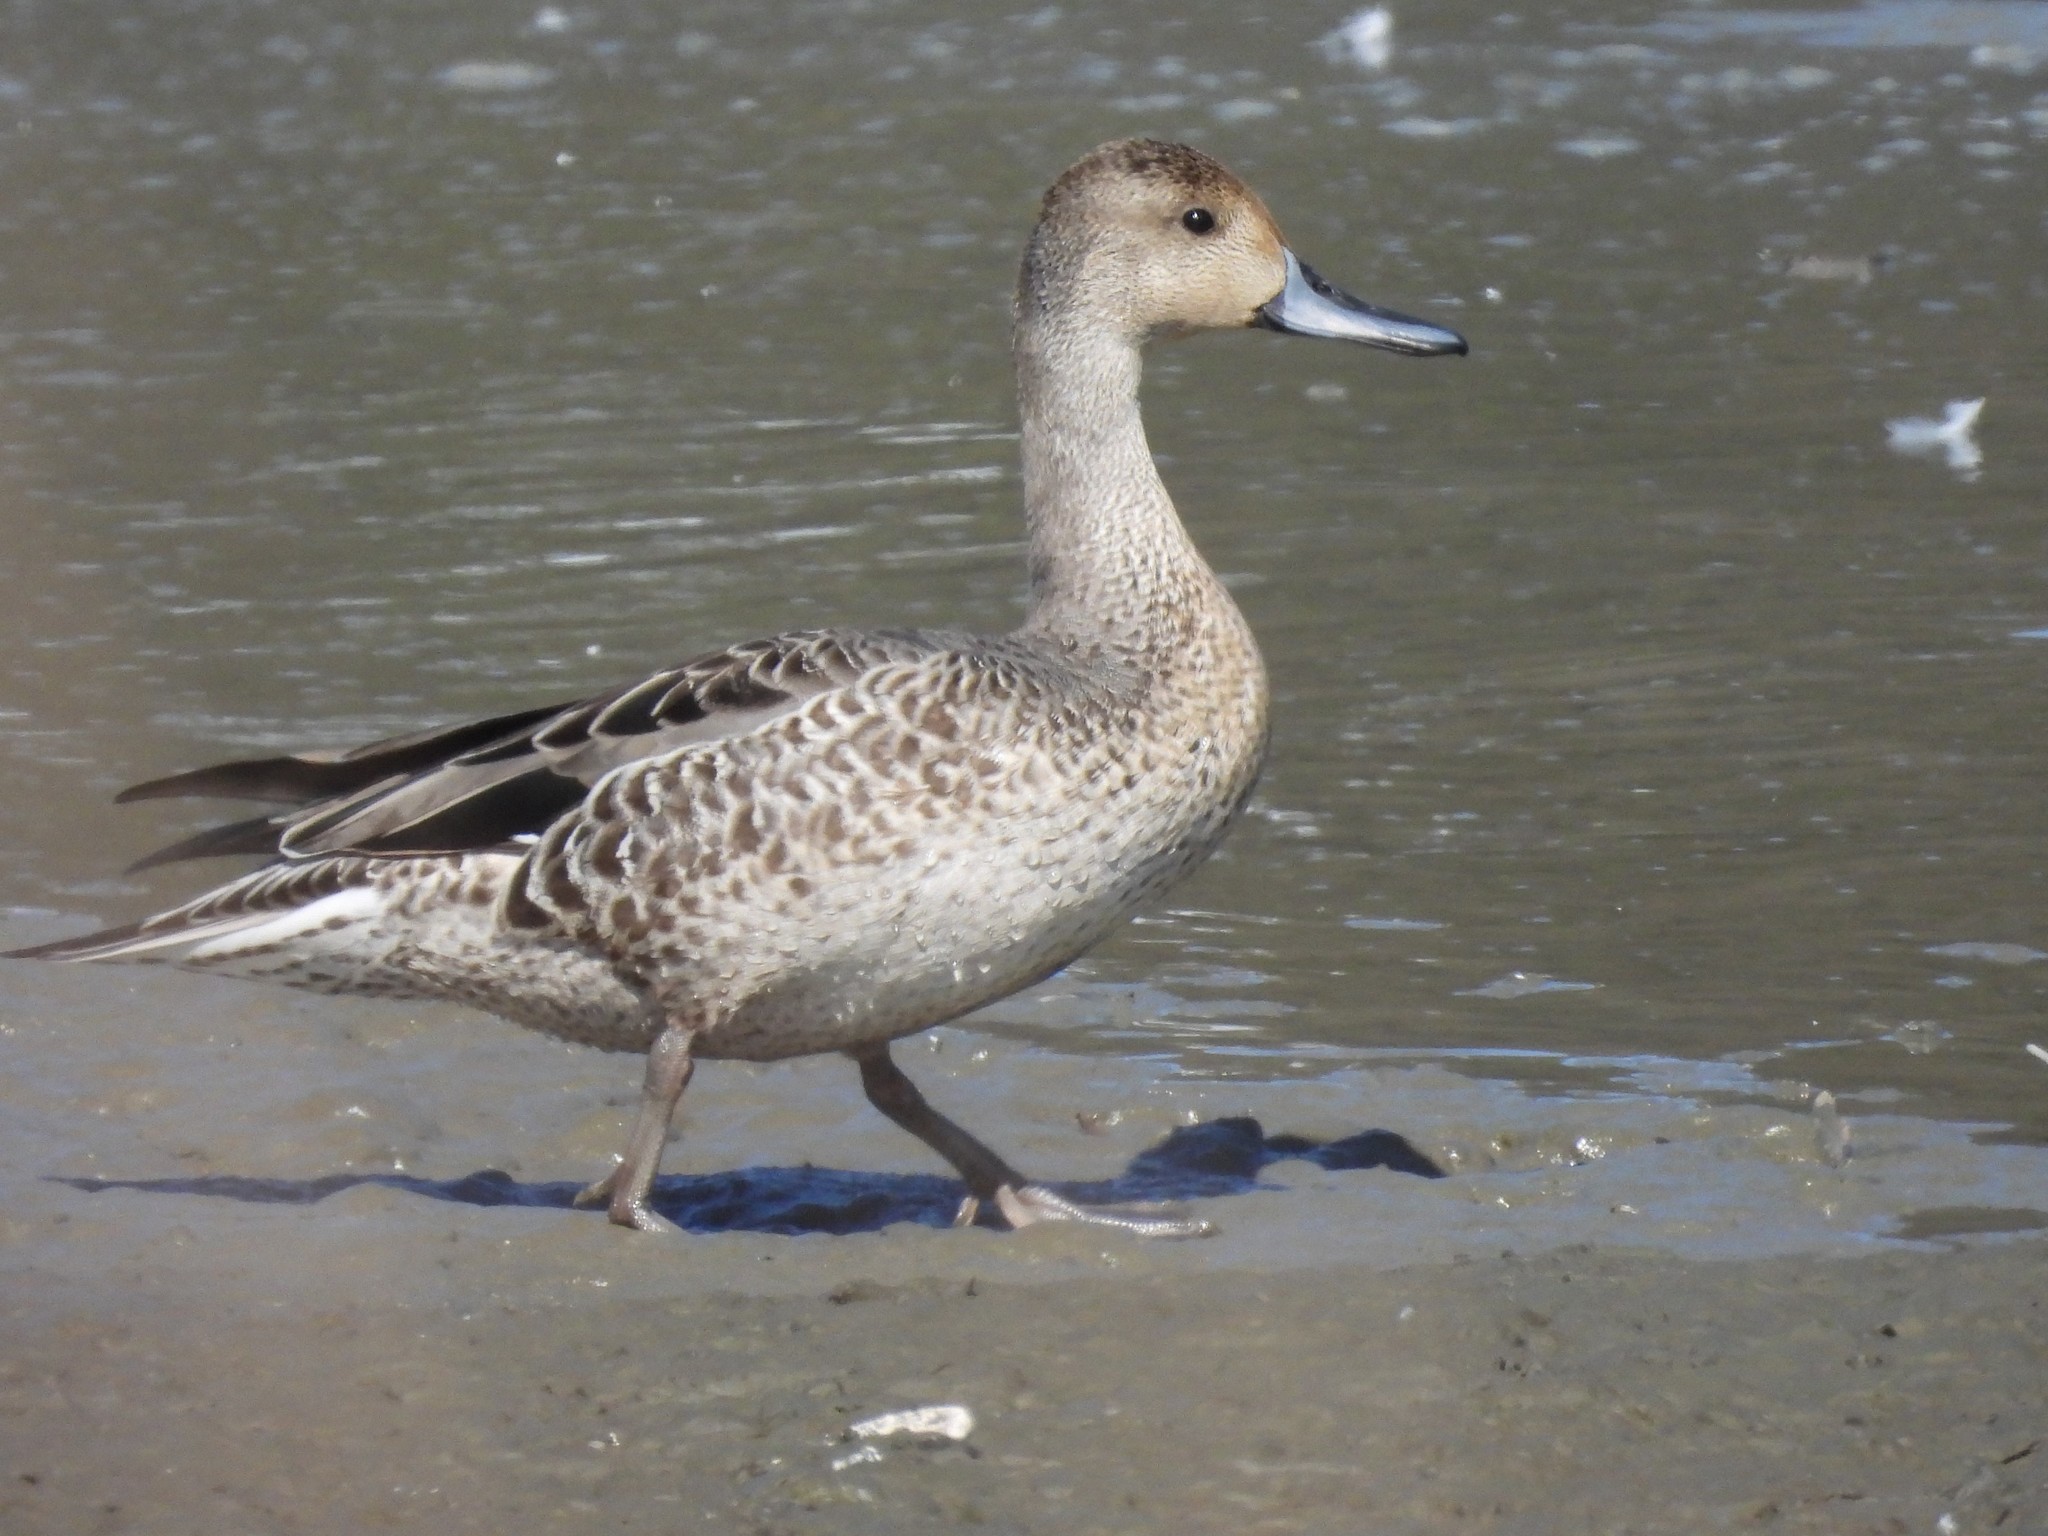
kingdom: Animalia
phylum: Chordata
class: Aves
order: Anseriformes
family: Anatidae
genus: Anas
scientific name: Anas acuta
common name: Northern pintail
